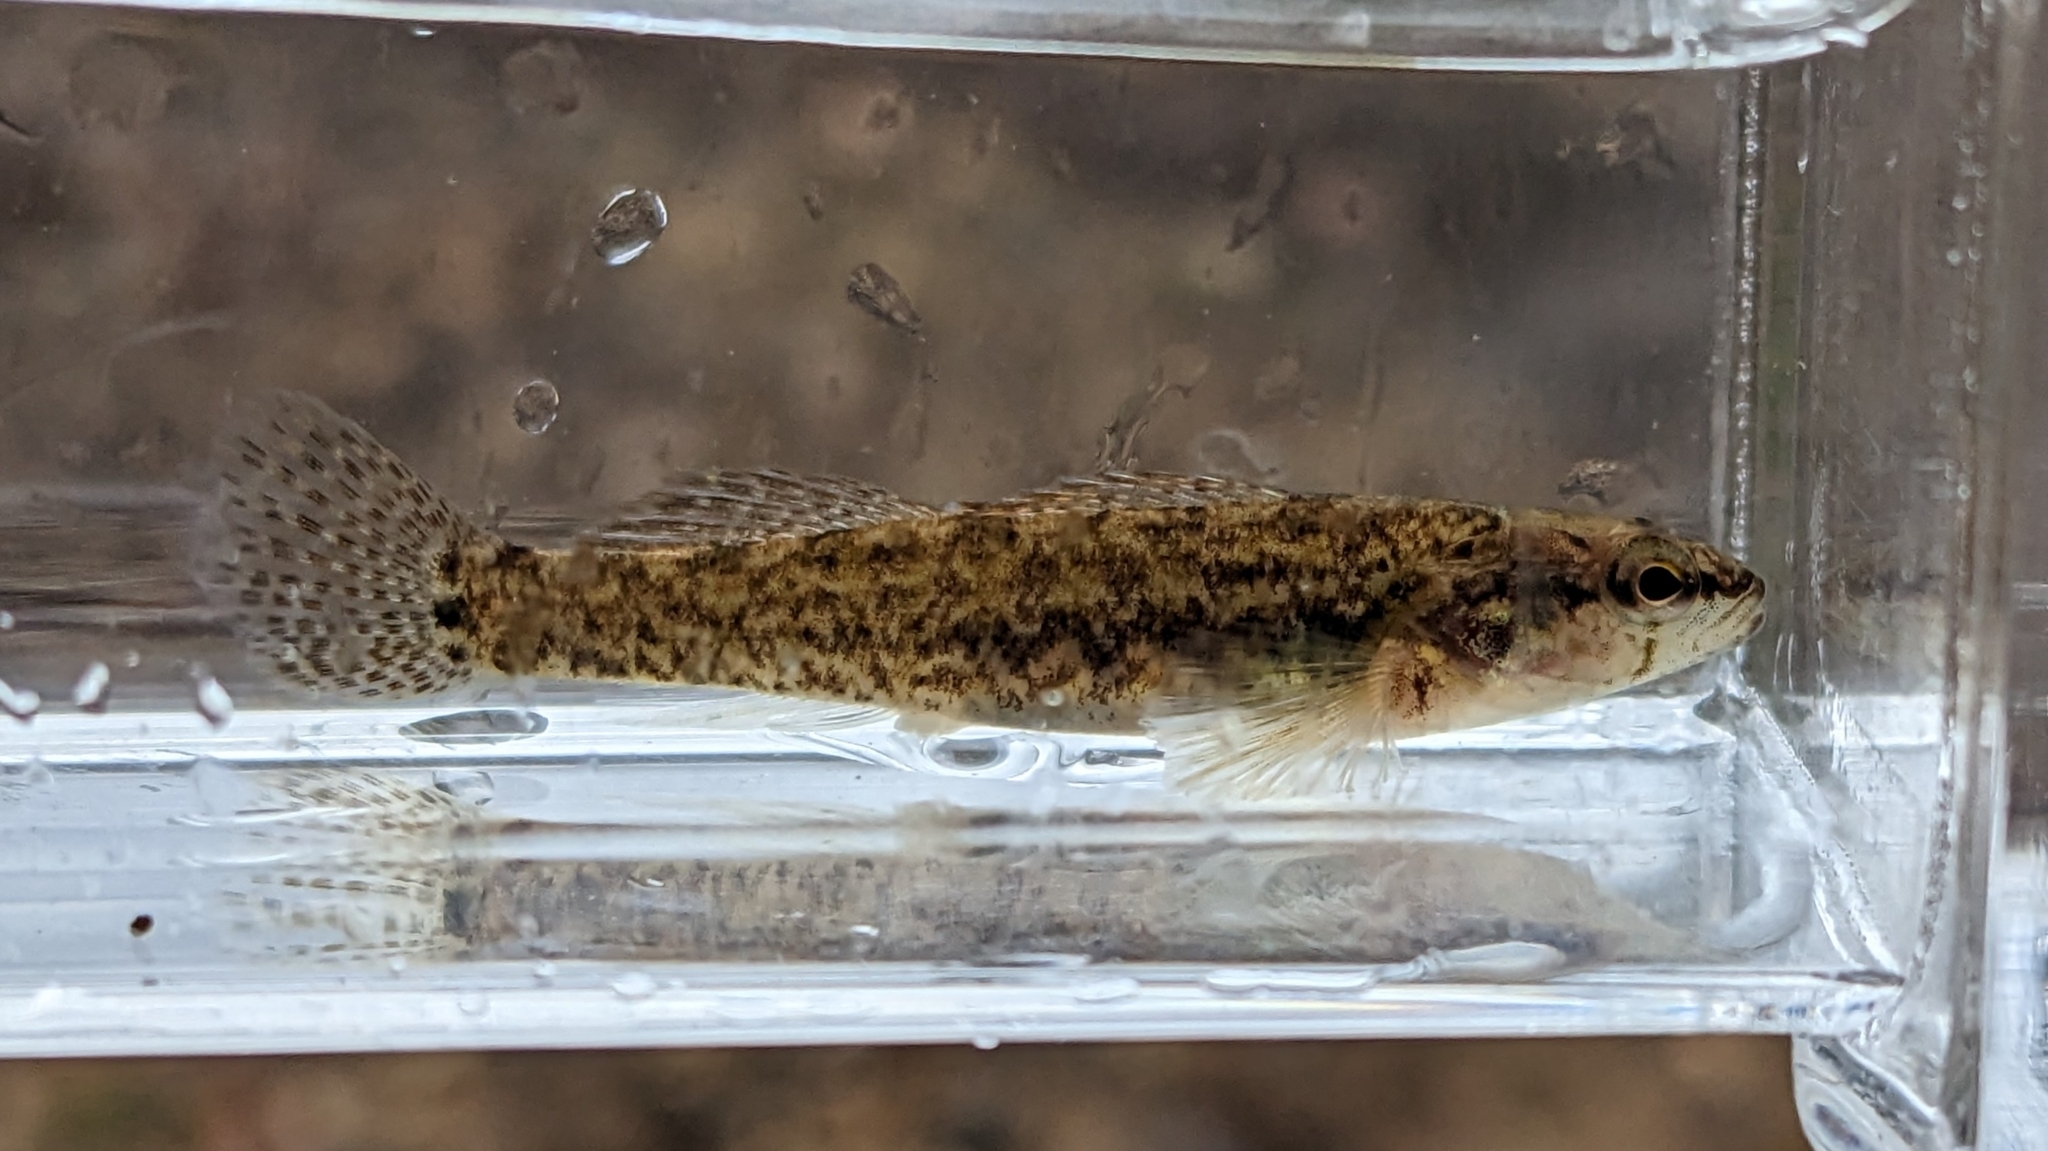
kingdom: Animalia
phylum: Chordata
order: Perciformes
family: Percidae
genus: Etheostoma
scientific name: Etheostoma oophylax
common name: Guardian darter
